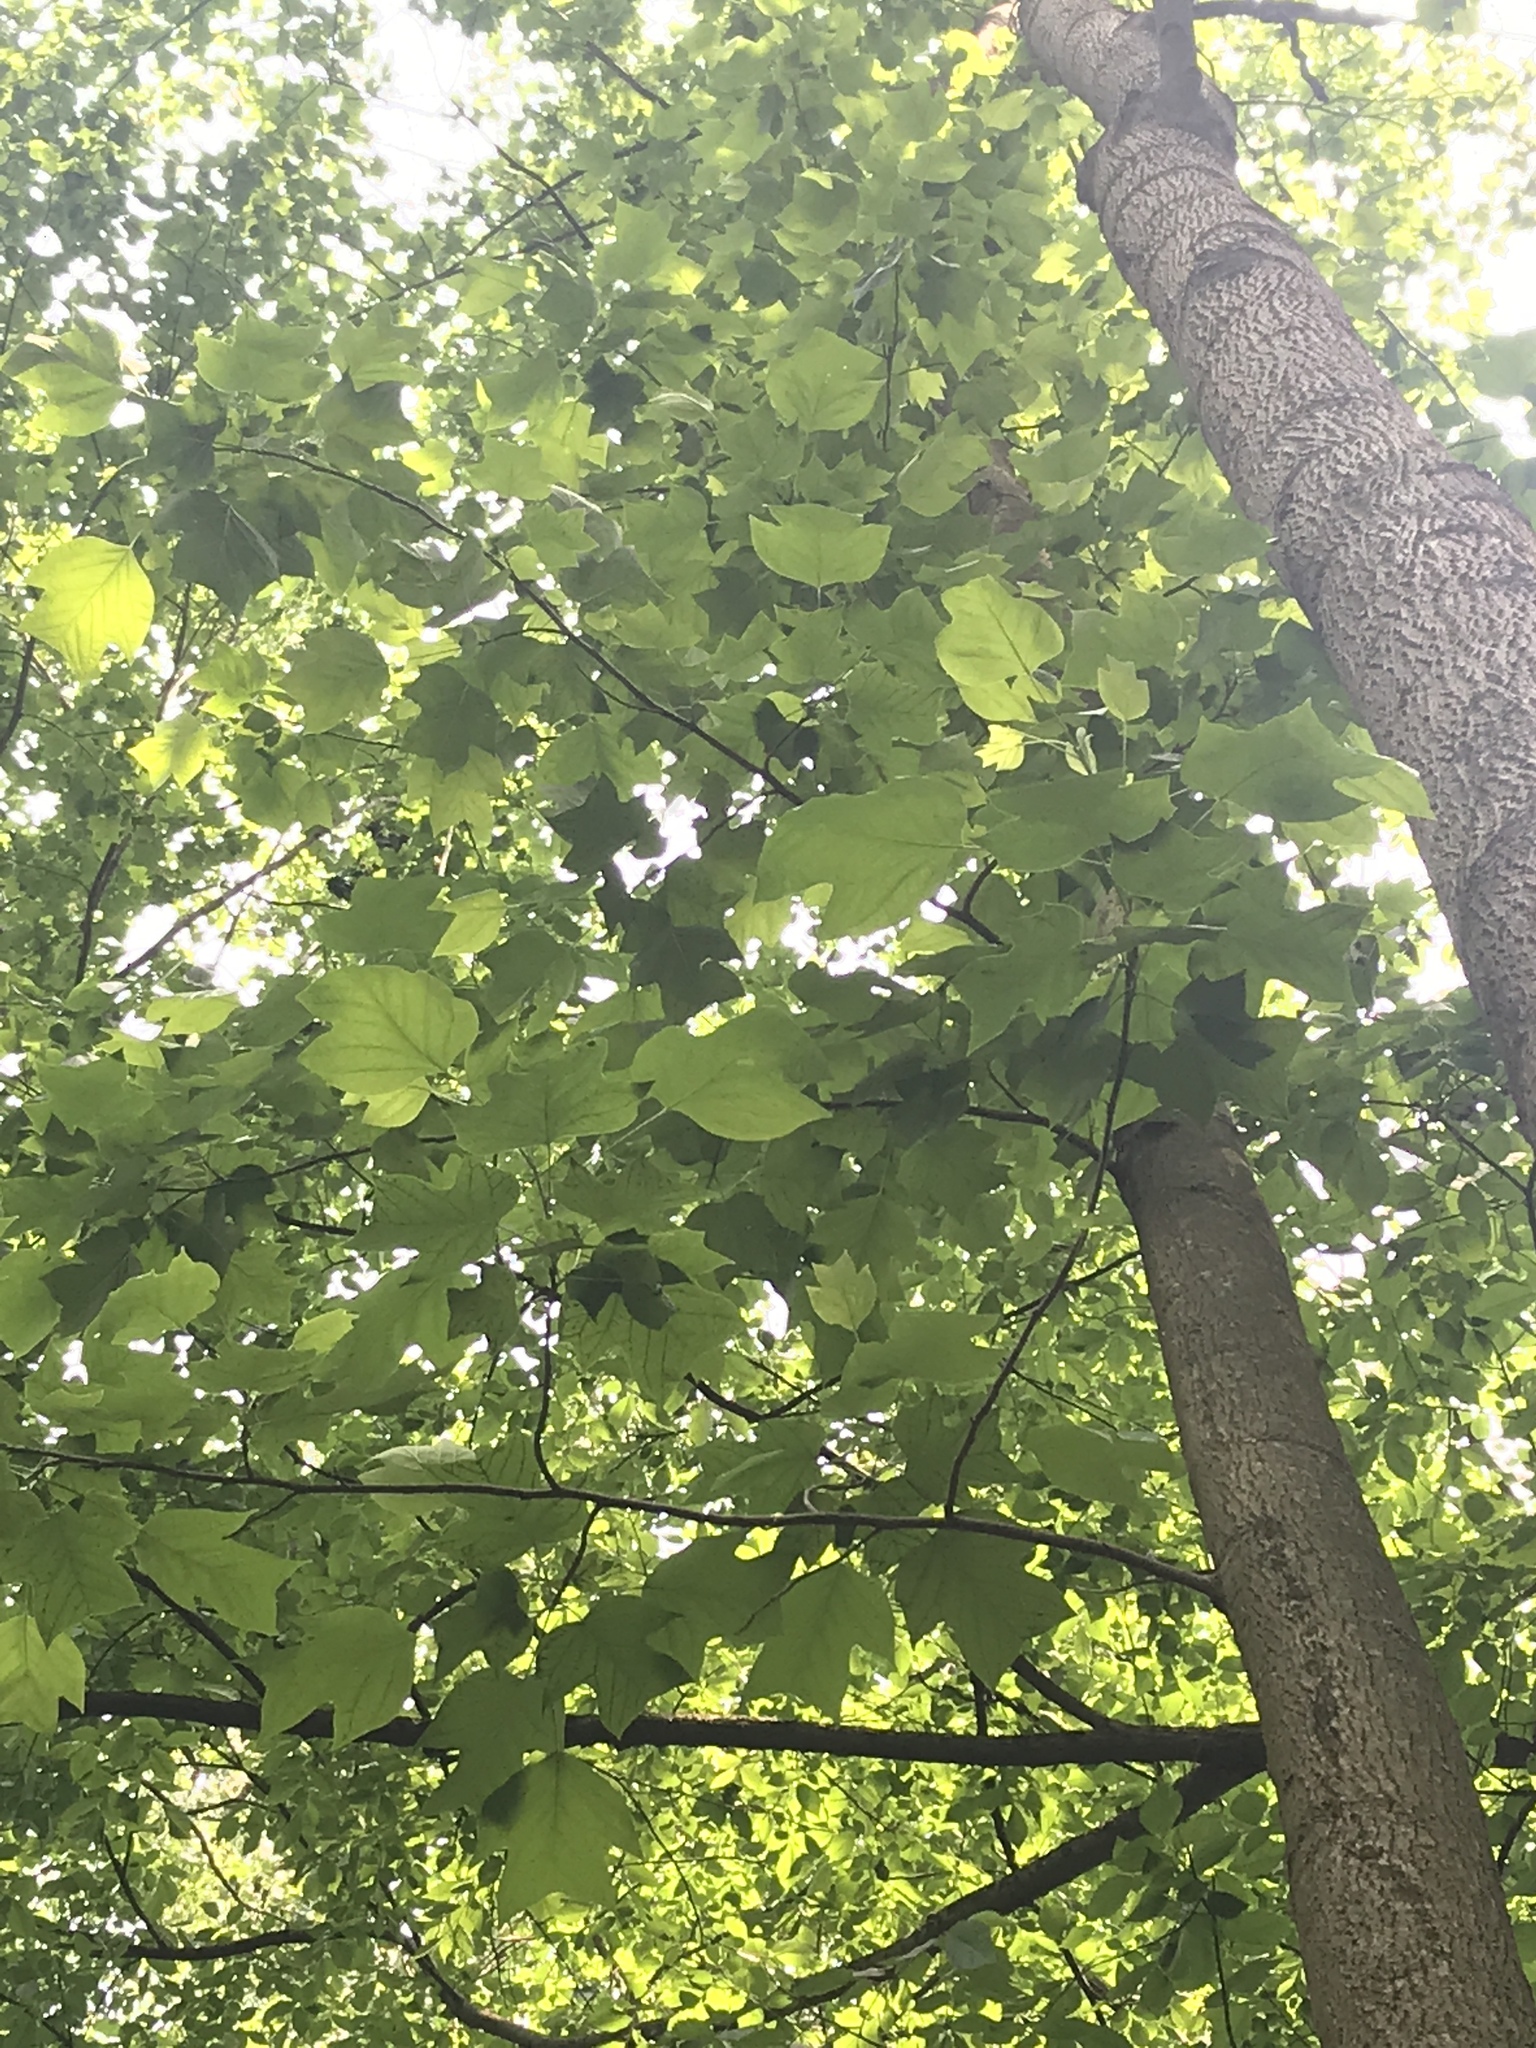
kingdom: Plantae
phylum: Tracheophyta
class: Magnoliopsida
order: Magnoliales
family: Magnoliaceae
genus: Liriodendron
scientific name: Liriodendron tulipifera
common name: Tulip tree
